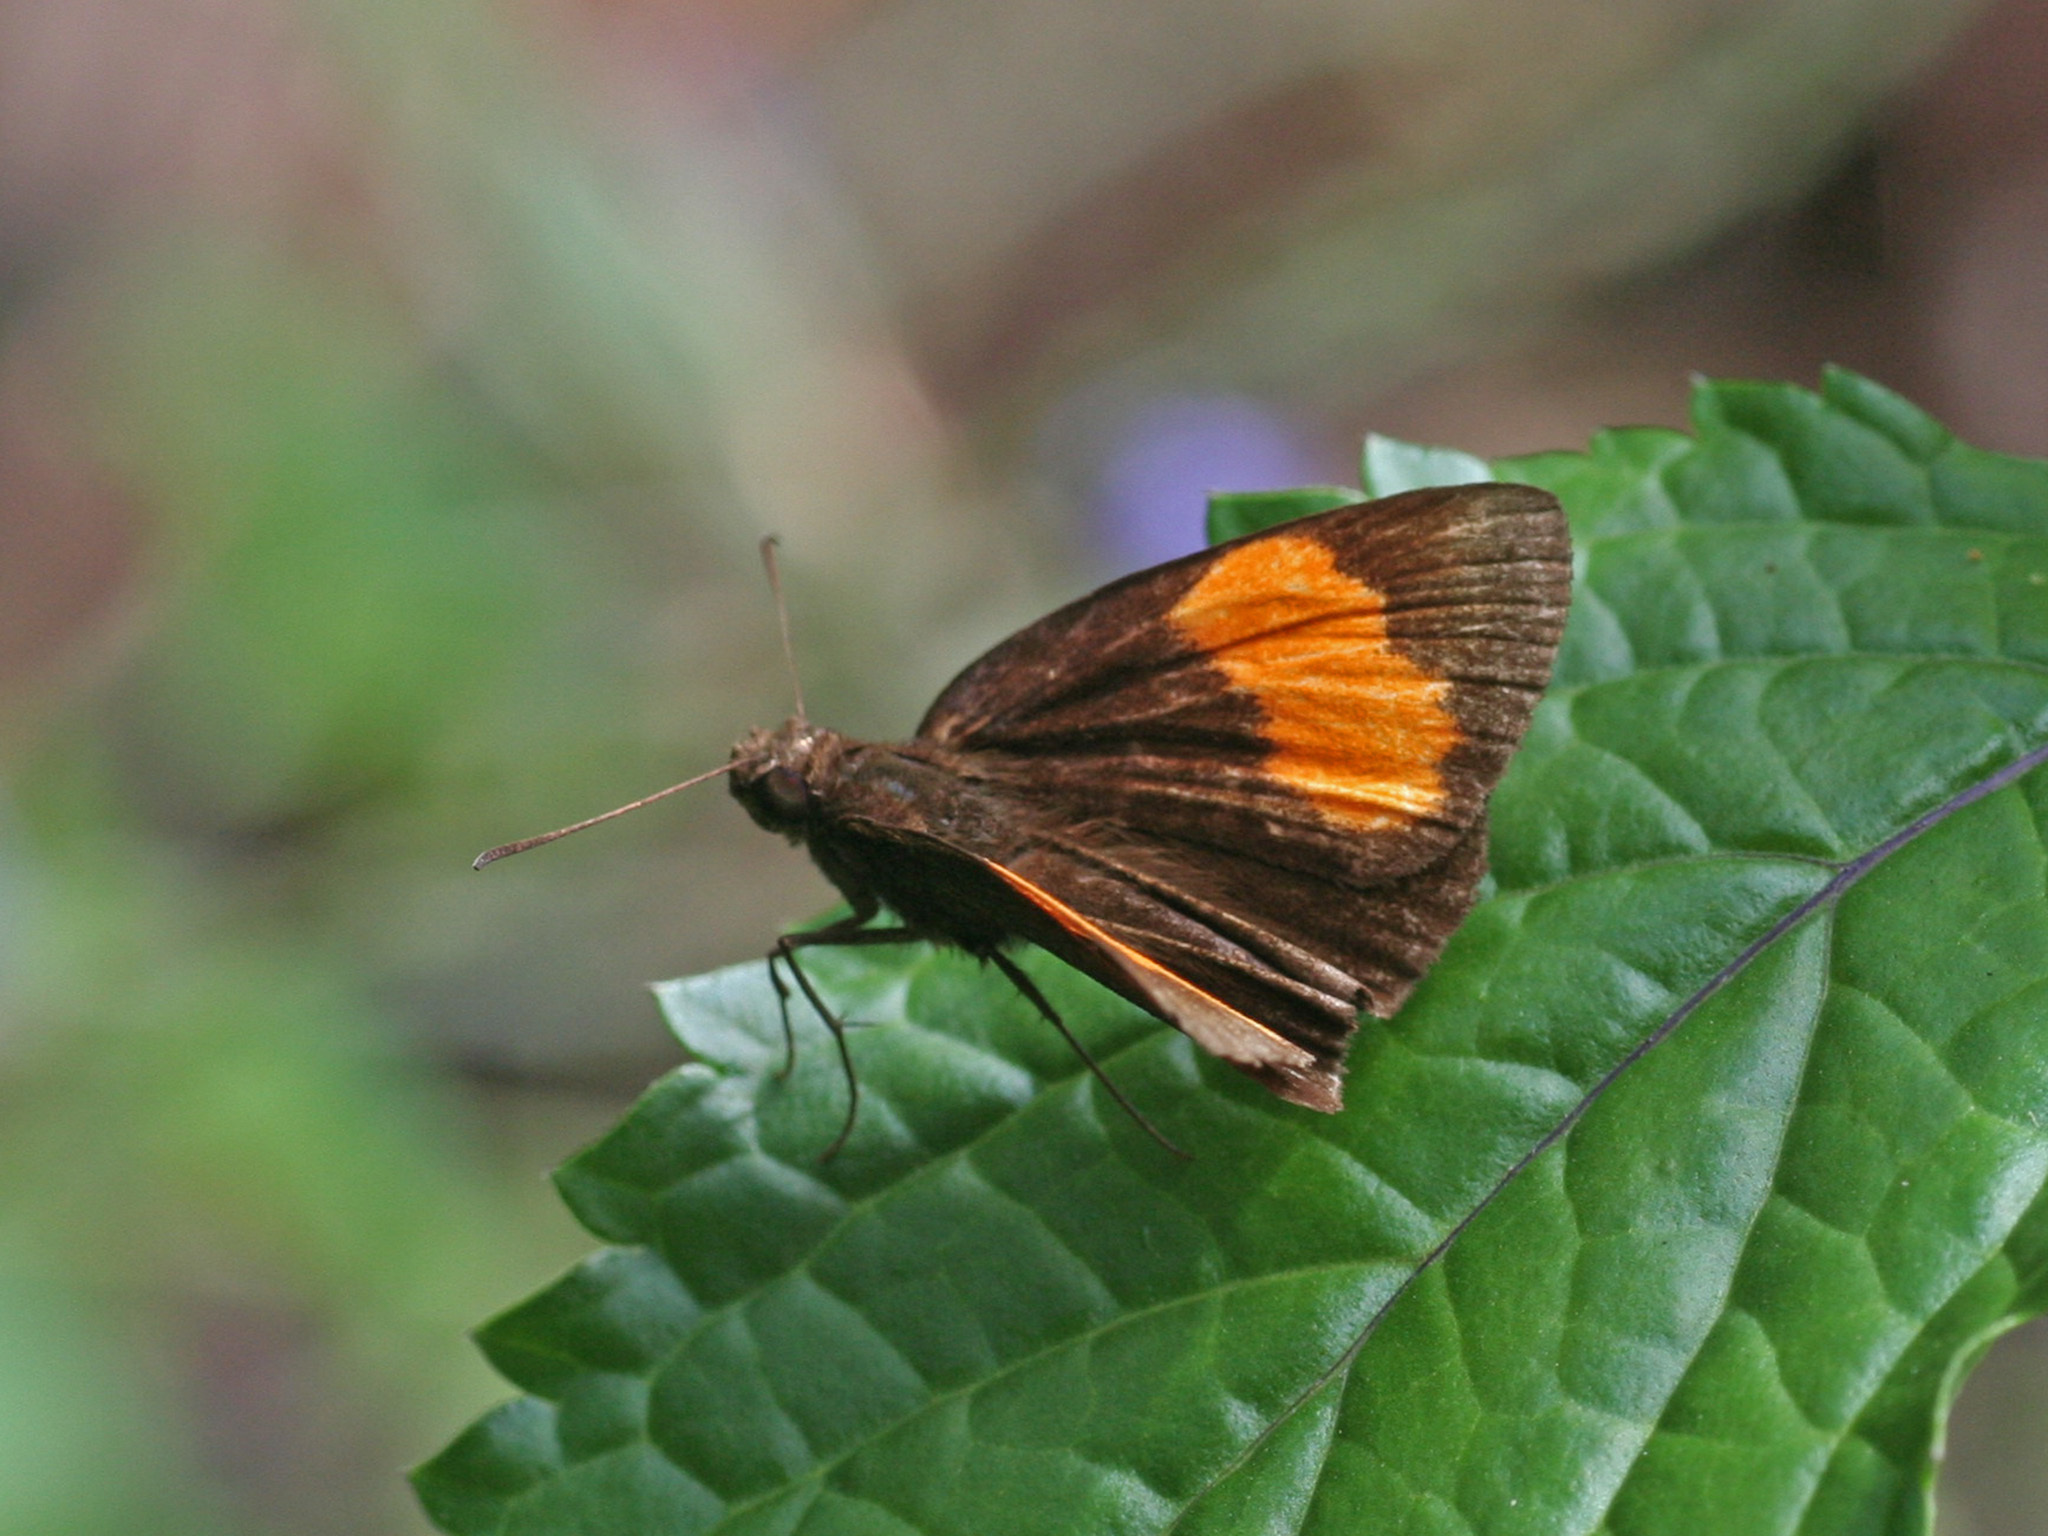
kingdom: Animalia
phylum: Arthropoda
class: Insecta
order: Lepidoptera
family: Hesperiidae
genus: Koruthaialos
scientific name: Koruthaialos sindu
